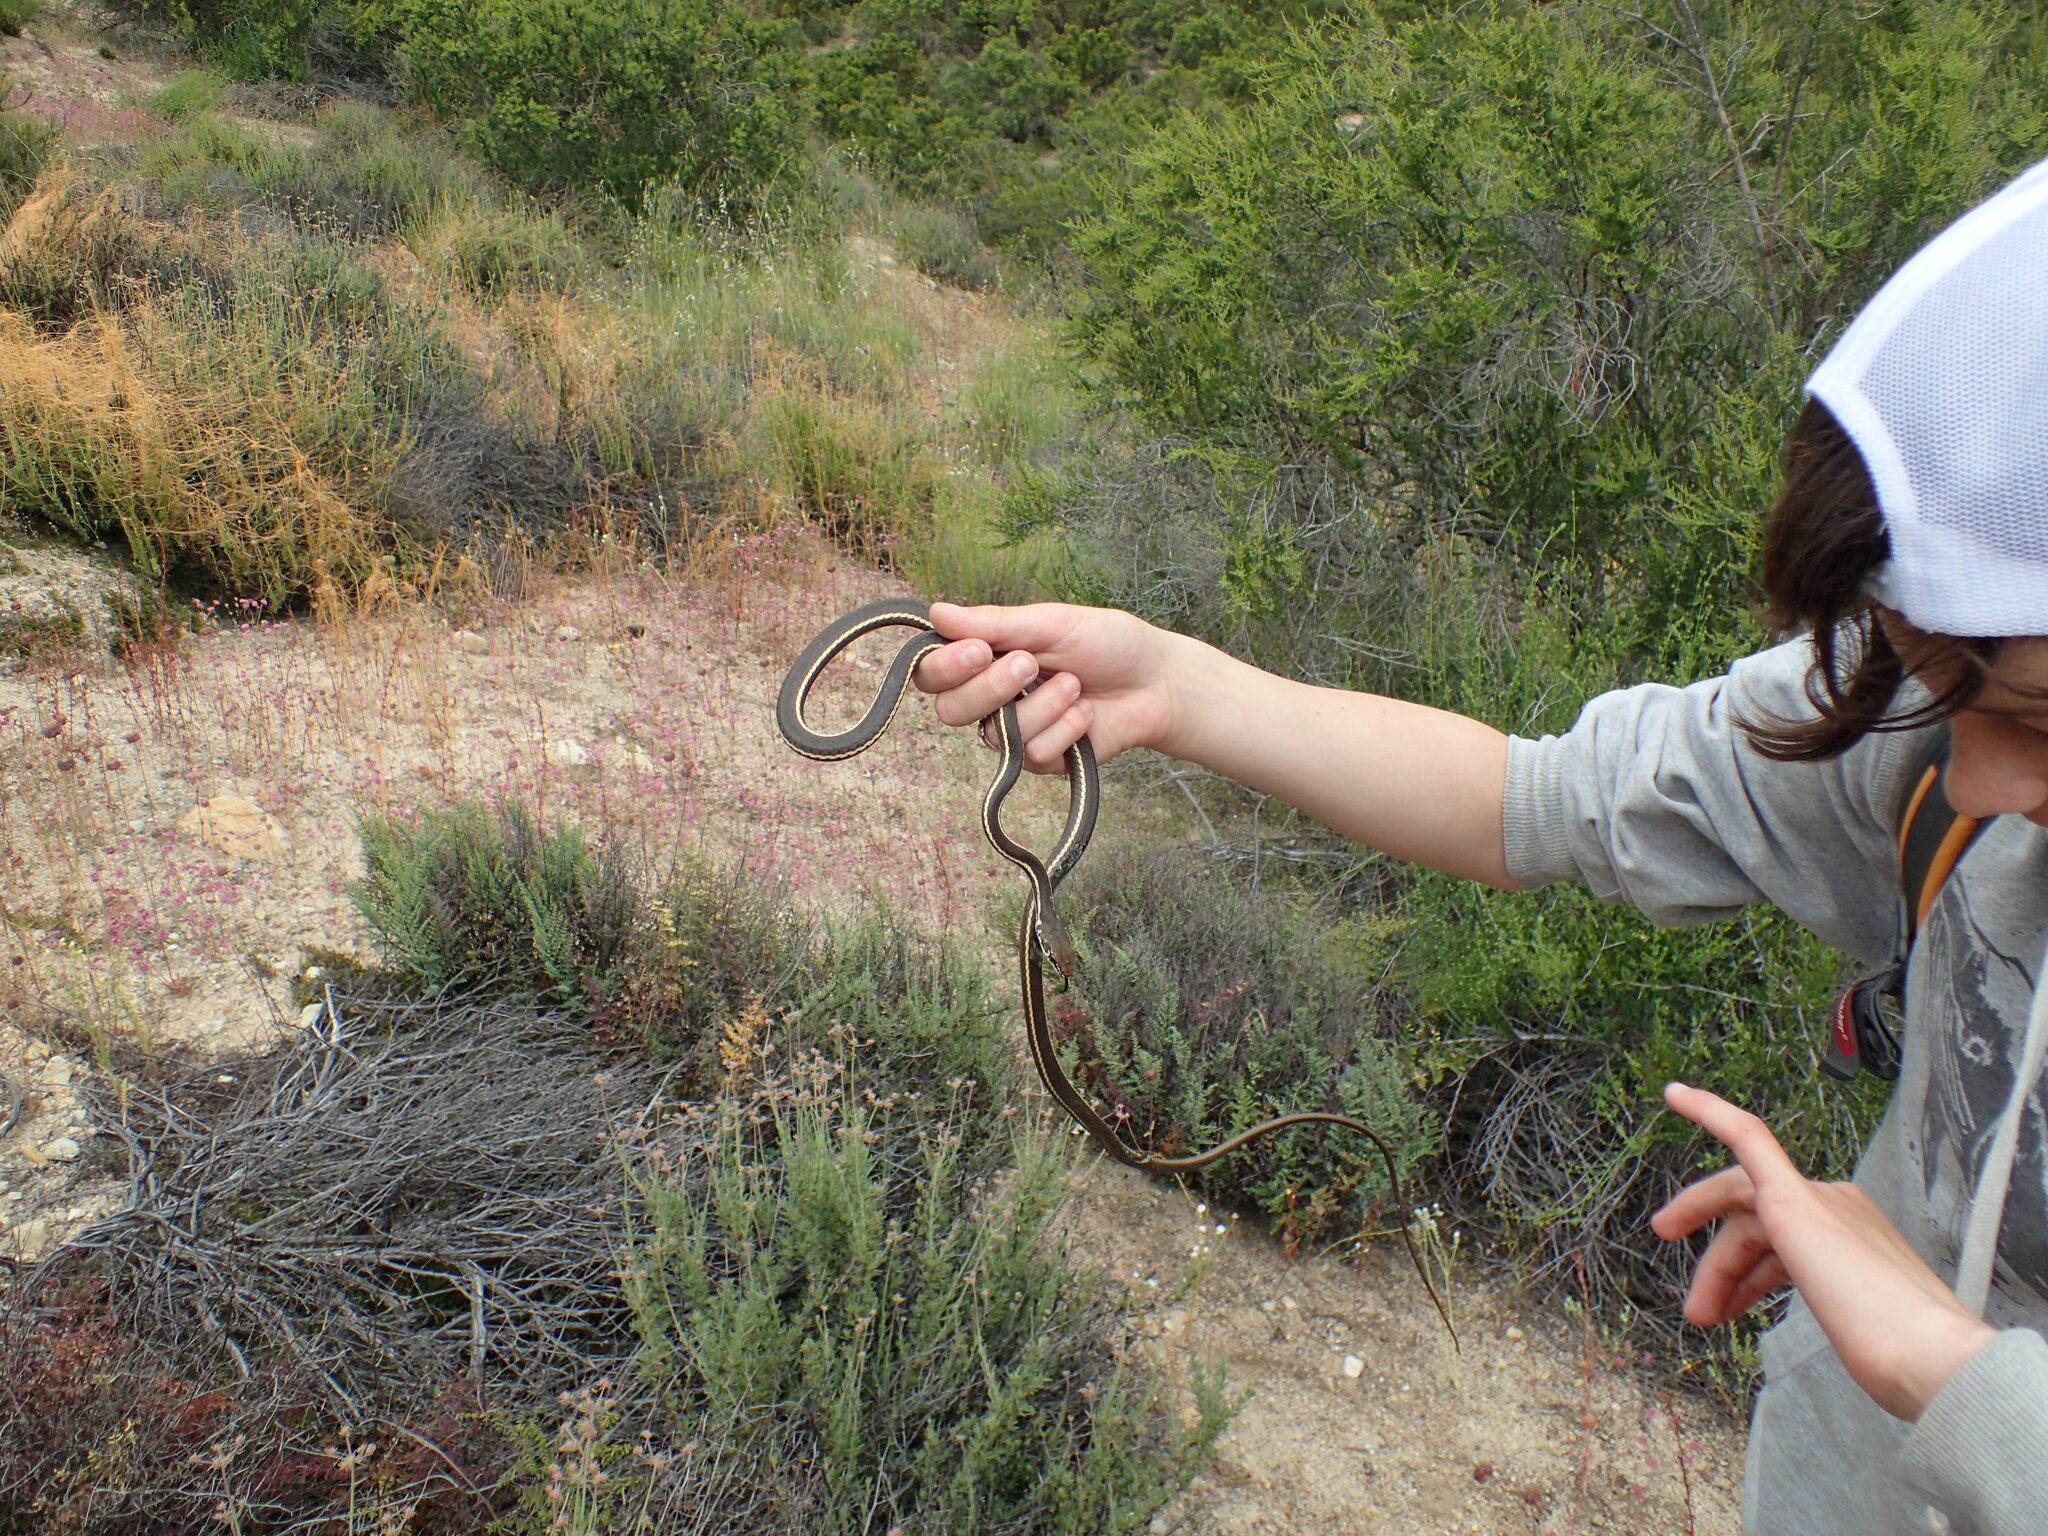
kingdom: Animalia
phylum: Chordata
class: Squamata
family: Colubridae
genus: Masticophis
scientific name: Masticophis lateralis
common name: Striped racer
